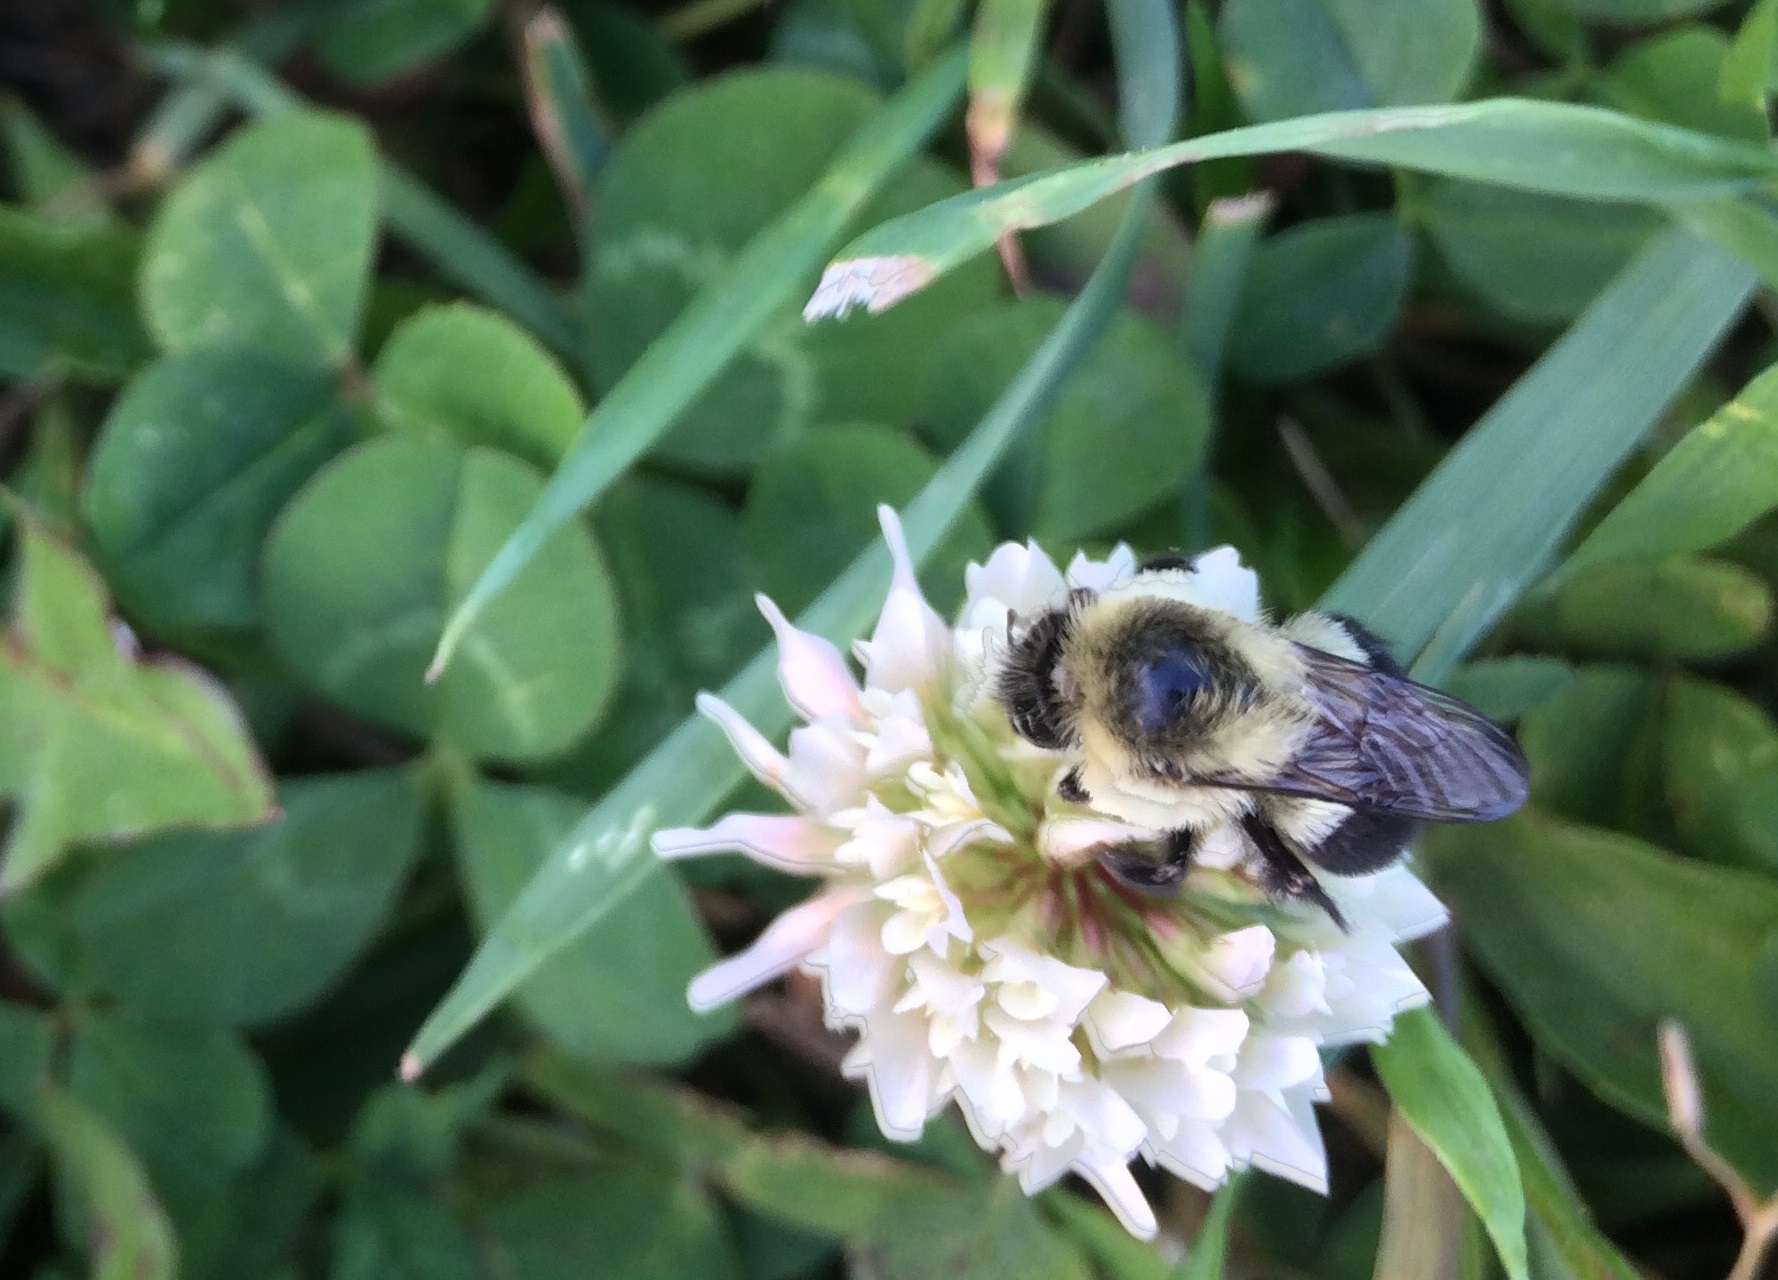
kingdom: Animalia
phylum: Arthropoda
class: Insecta
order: Hymenoptera
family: Apidae
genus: Bombus
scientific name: Bombus impatiens
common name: Common eastern bumble bee
